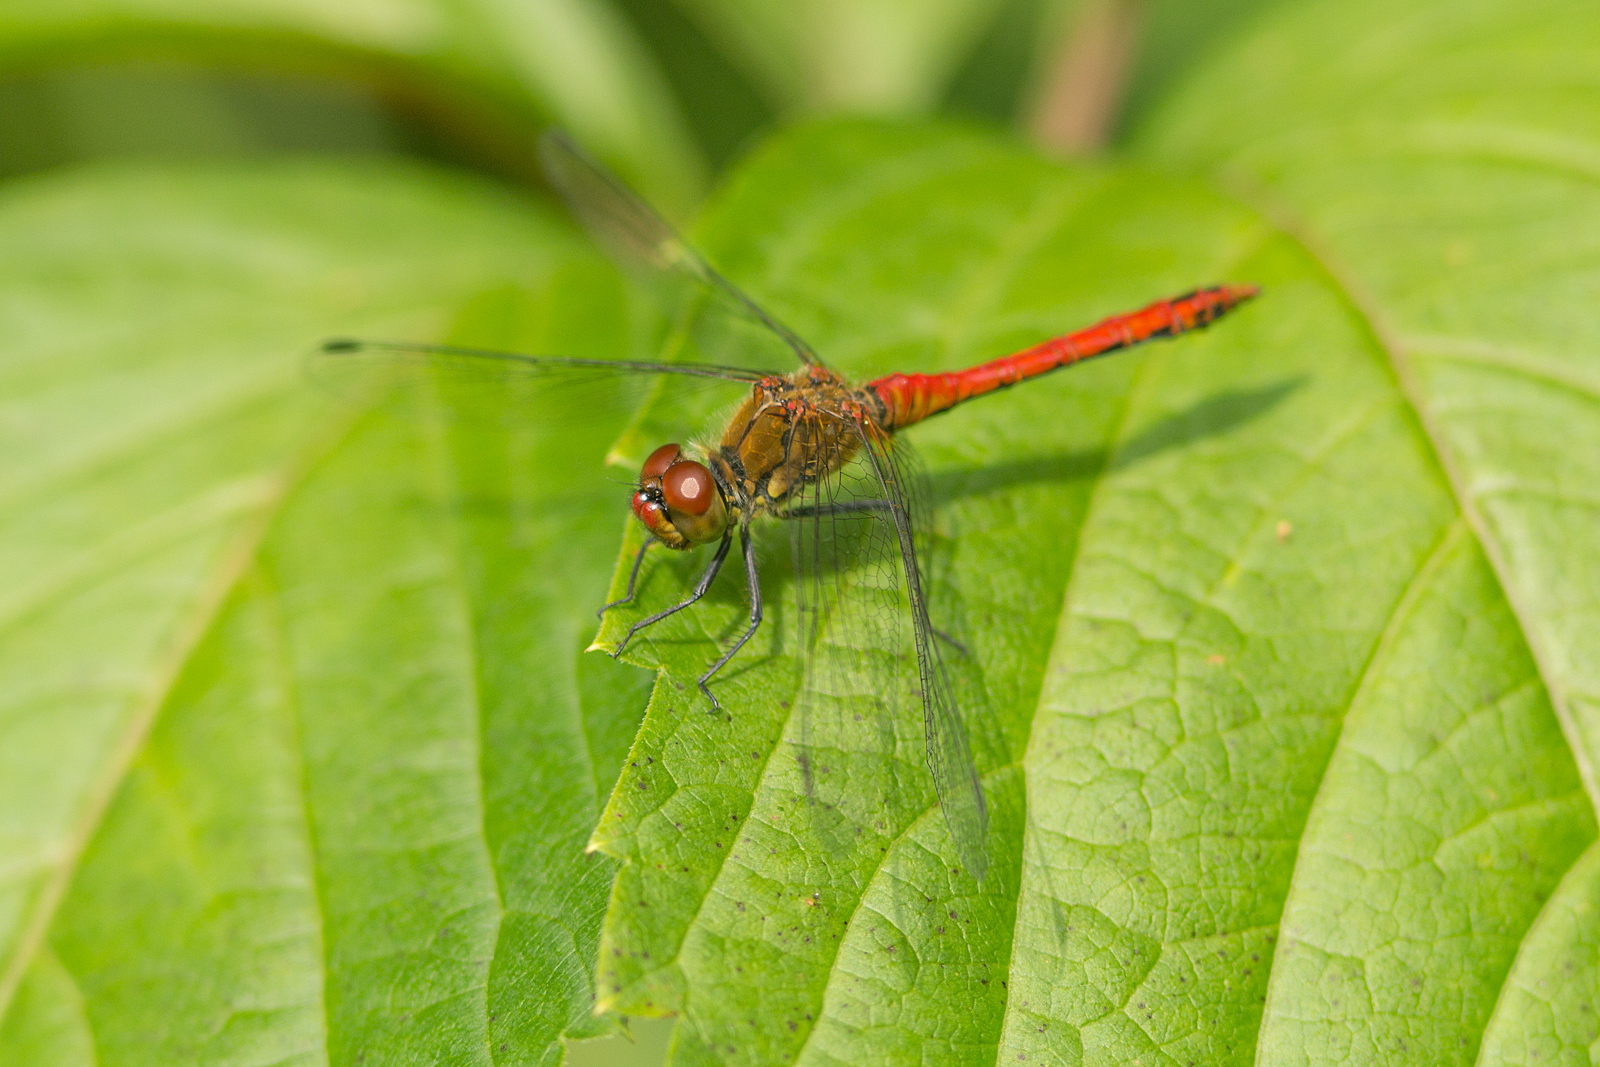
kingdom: Animalia
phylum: Arthropoda
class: Insecta
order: Odonata
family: Libellulidae
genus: Sympetrum
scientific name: Sympetrum sanguineum
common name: Ruddy darter
